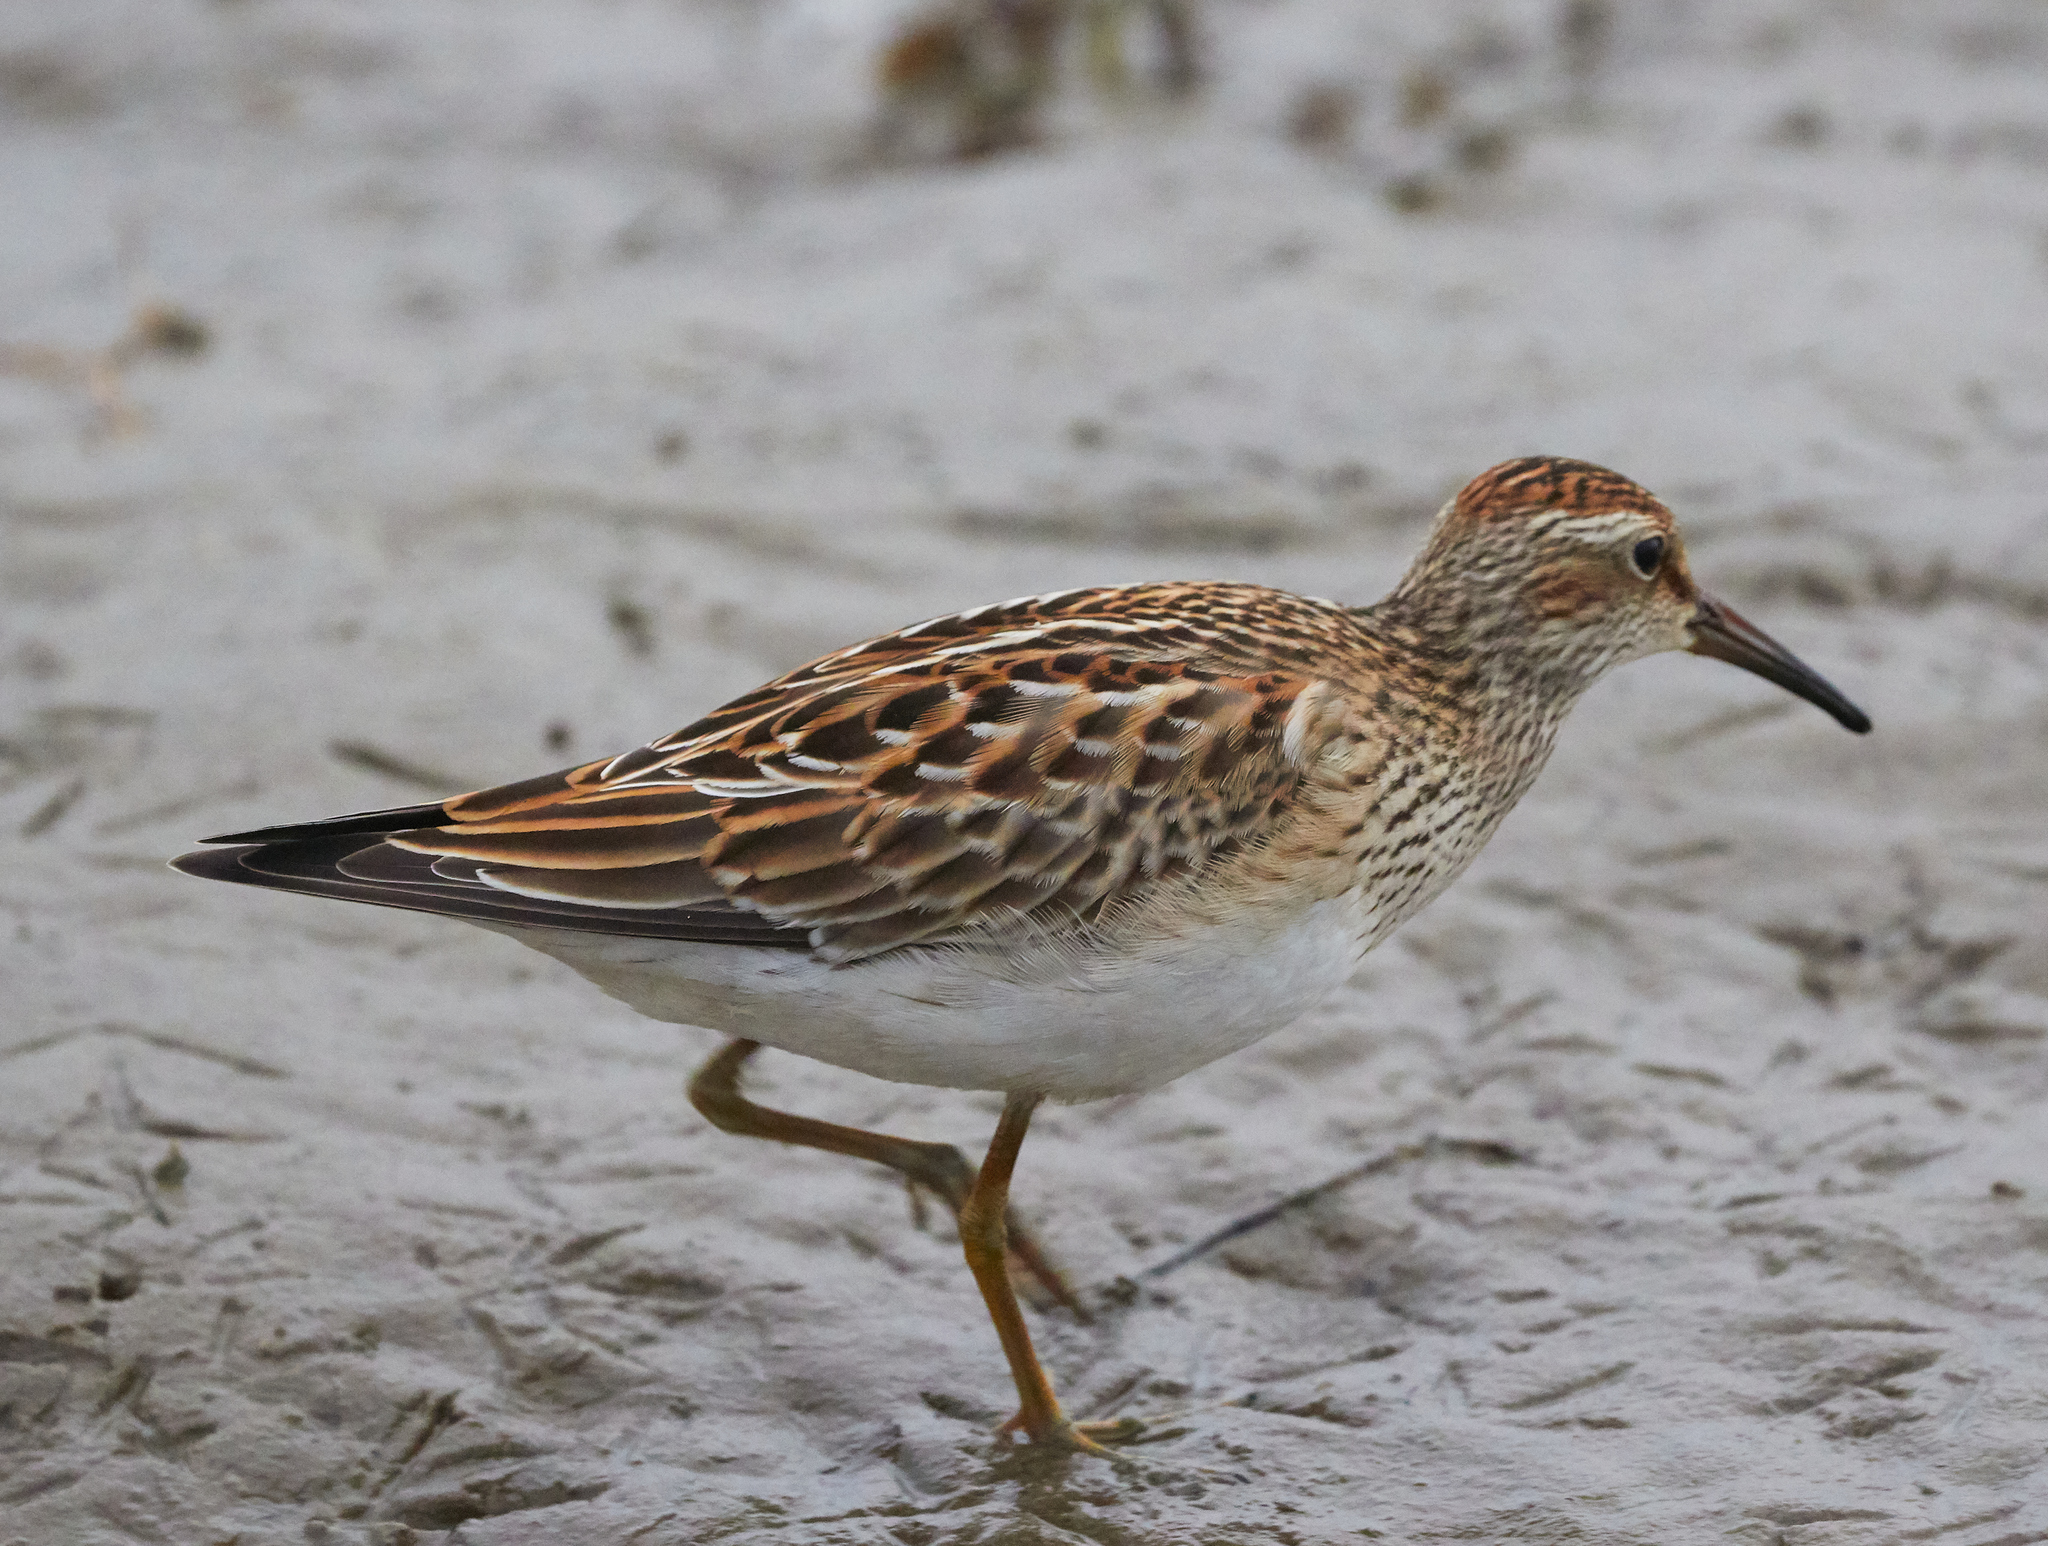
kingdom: Animalia
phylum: Chordata
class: Aves
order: Charadriiformes
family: Scolopacidae
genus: Calidris
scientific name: Calidris melanotos
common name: Pectoral sandpiper
